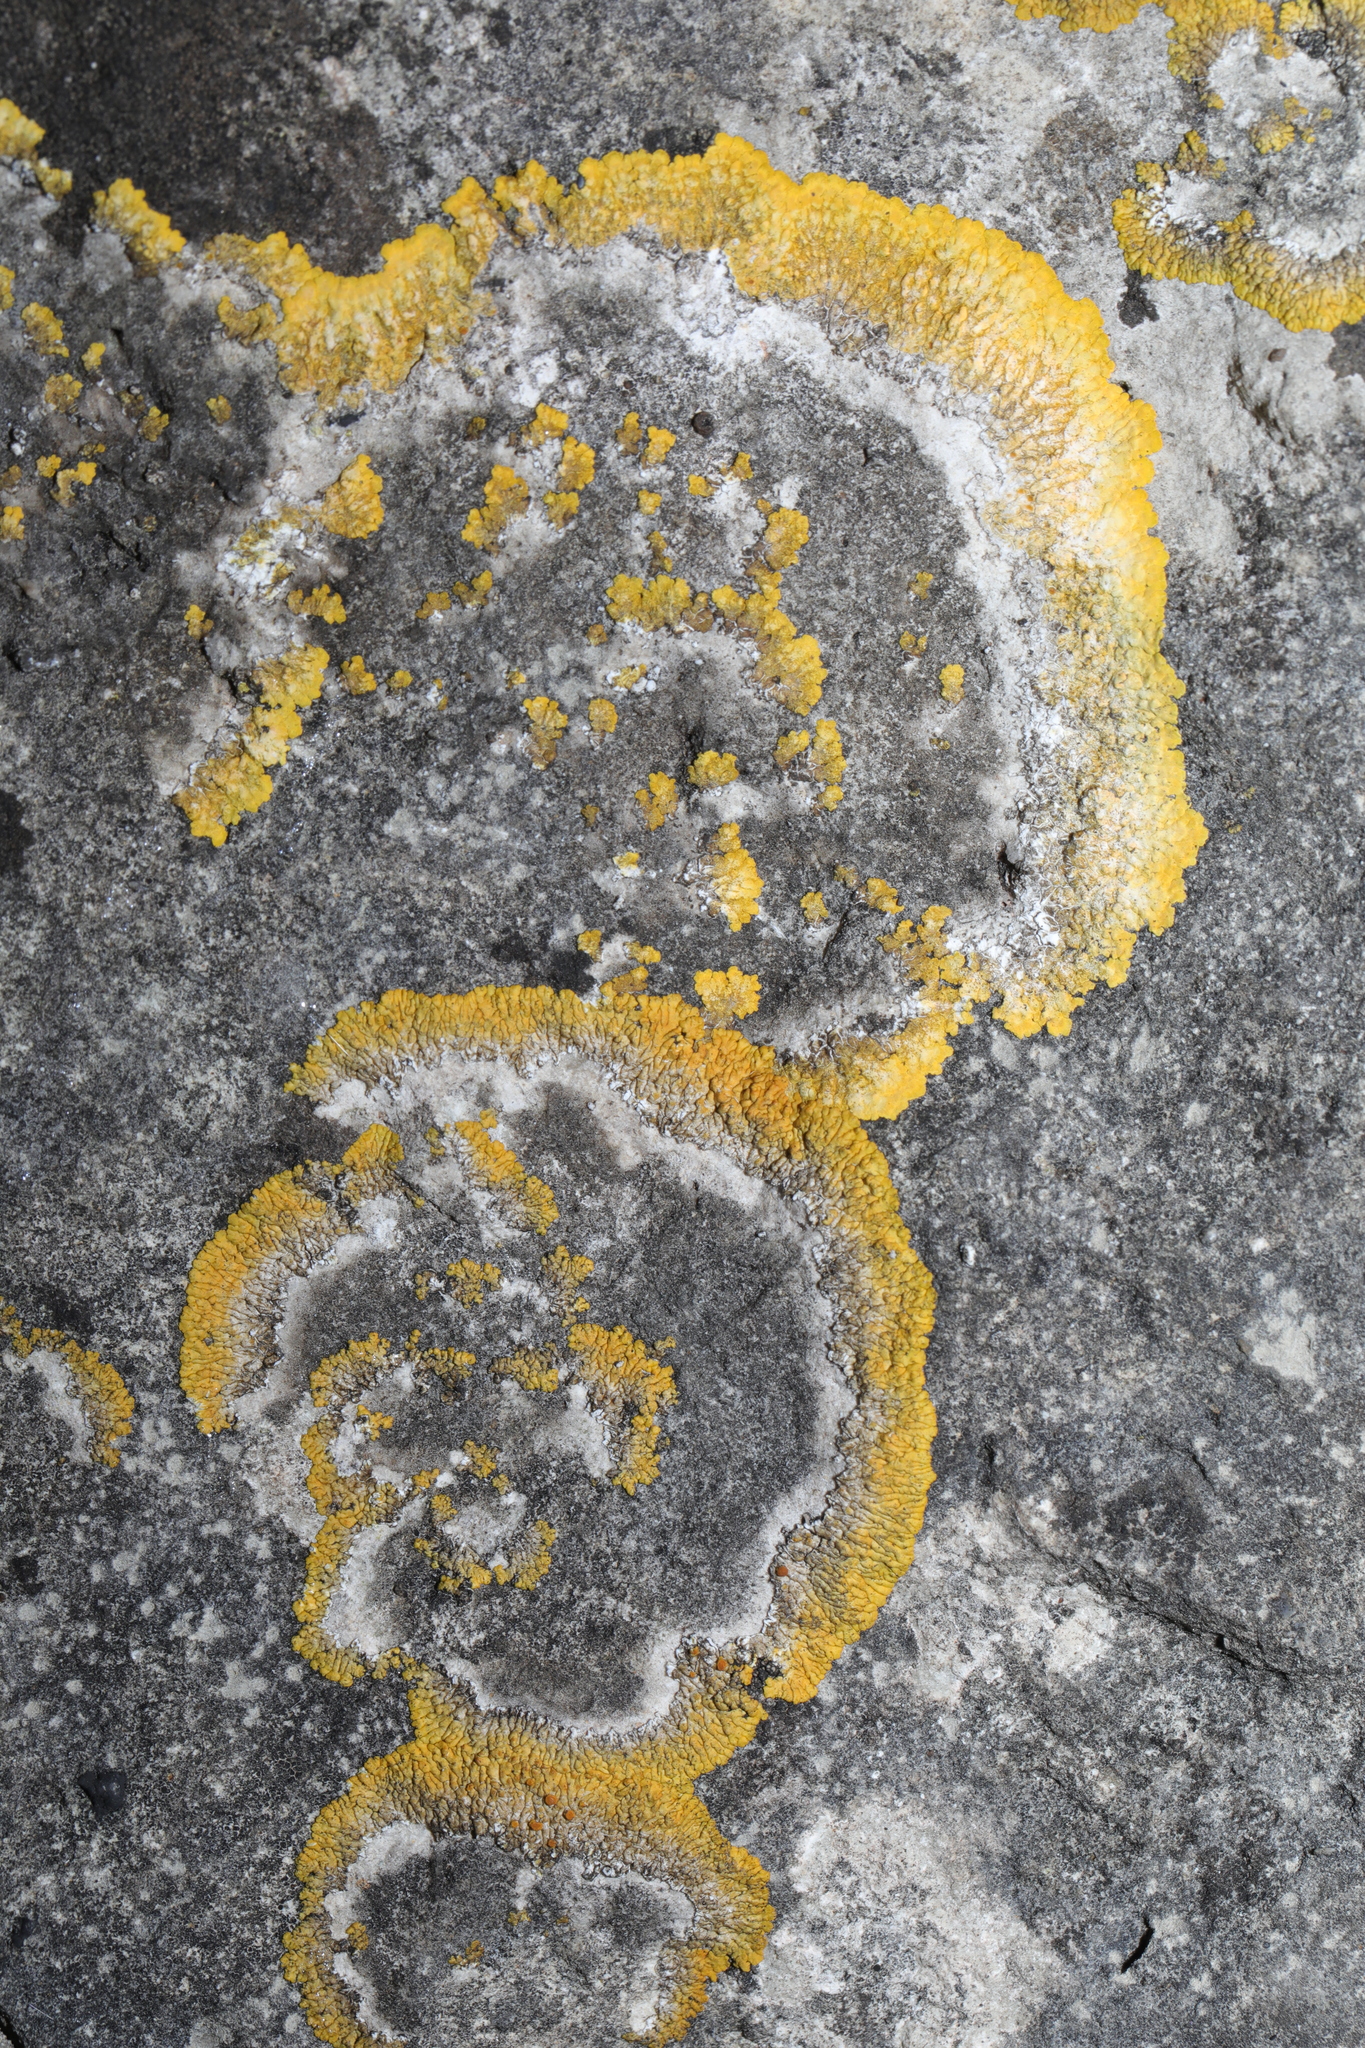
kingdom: Fungi
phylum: Ascomycota
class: Lecanoromycetes
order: Teloschistales
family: Teloschistaceae
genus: Variospora
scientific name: Variospora flavescens
